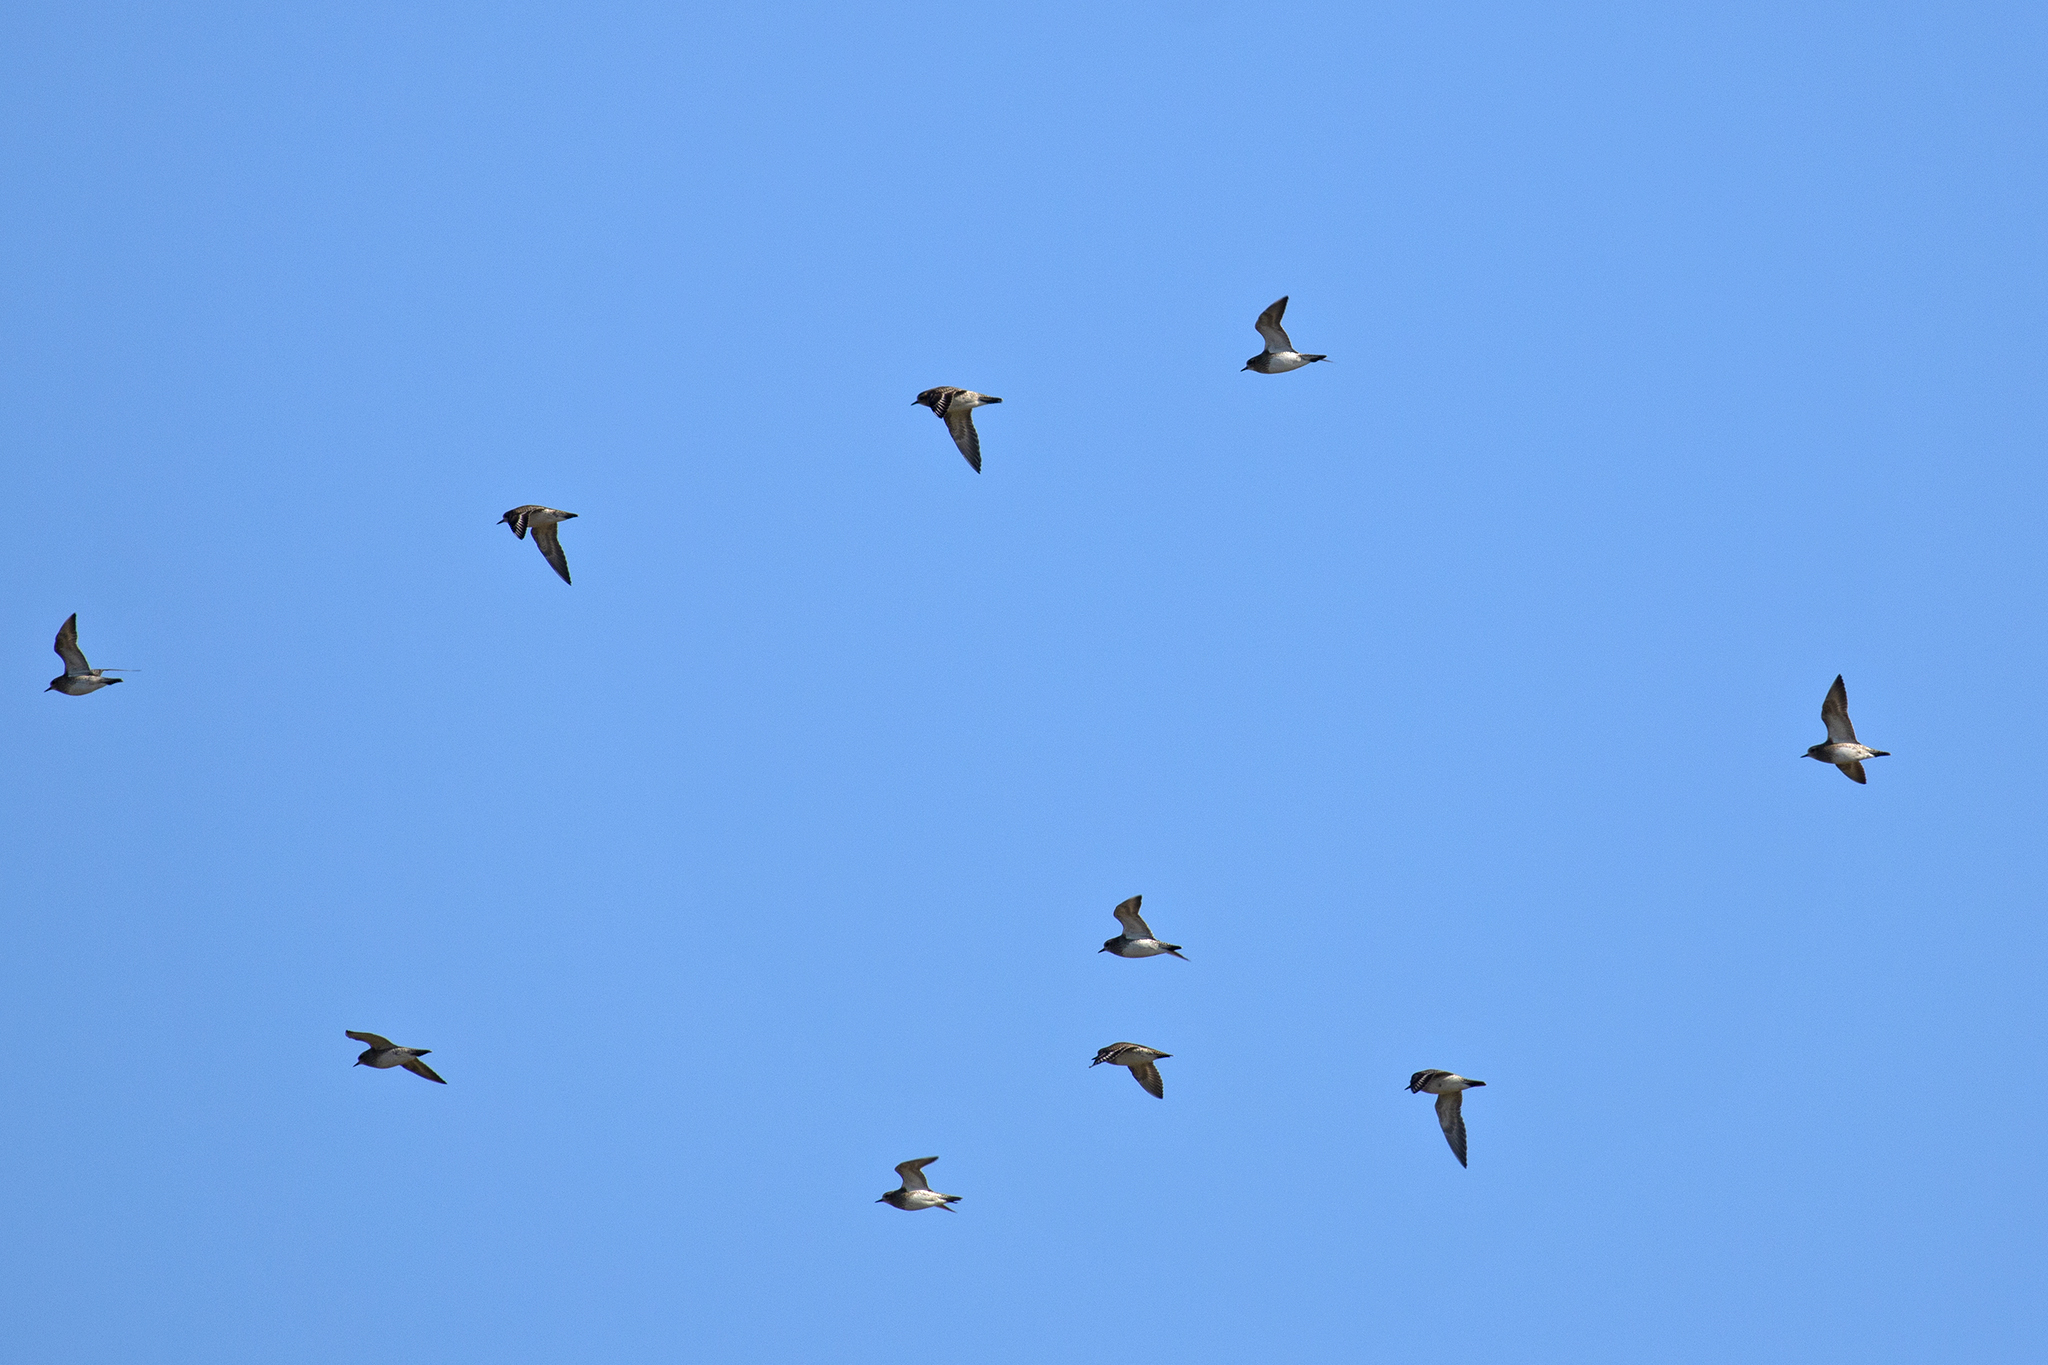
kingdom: Animalia
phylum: Chordata
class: Aves
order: Charadriiformes
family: Charadriidae
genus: Pluvialis
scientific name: Pluvialis apricaria
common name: European golden plover
